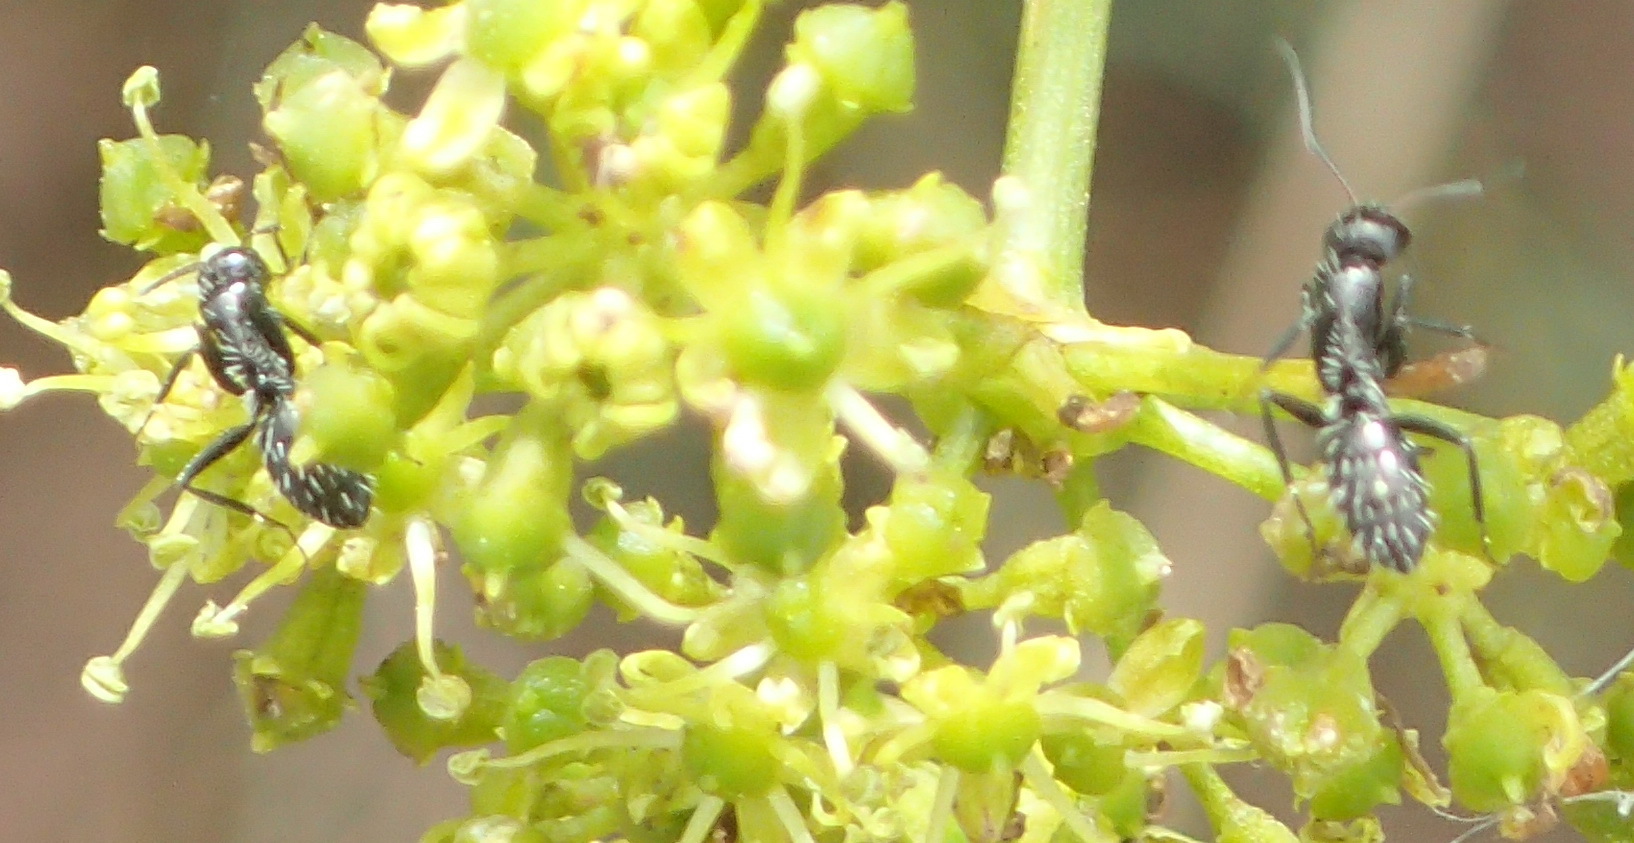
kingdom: Animalia
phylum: Arthropoda
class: Insecta
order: Hymenoptera
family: Formicidae
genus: Camponotus
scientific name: Camponotus niveosetosus
